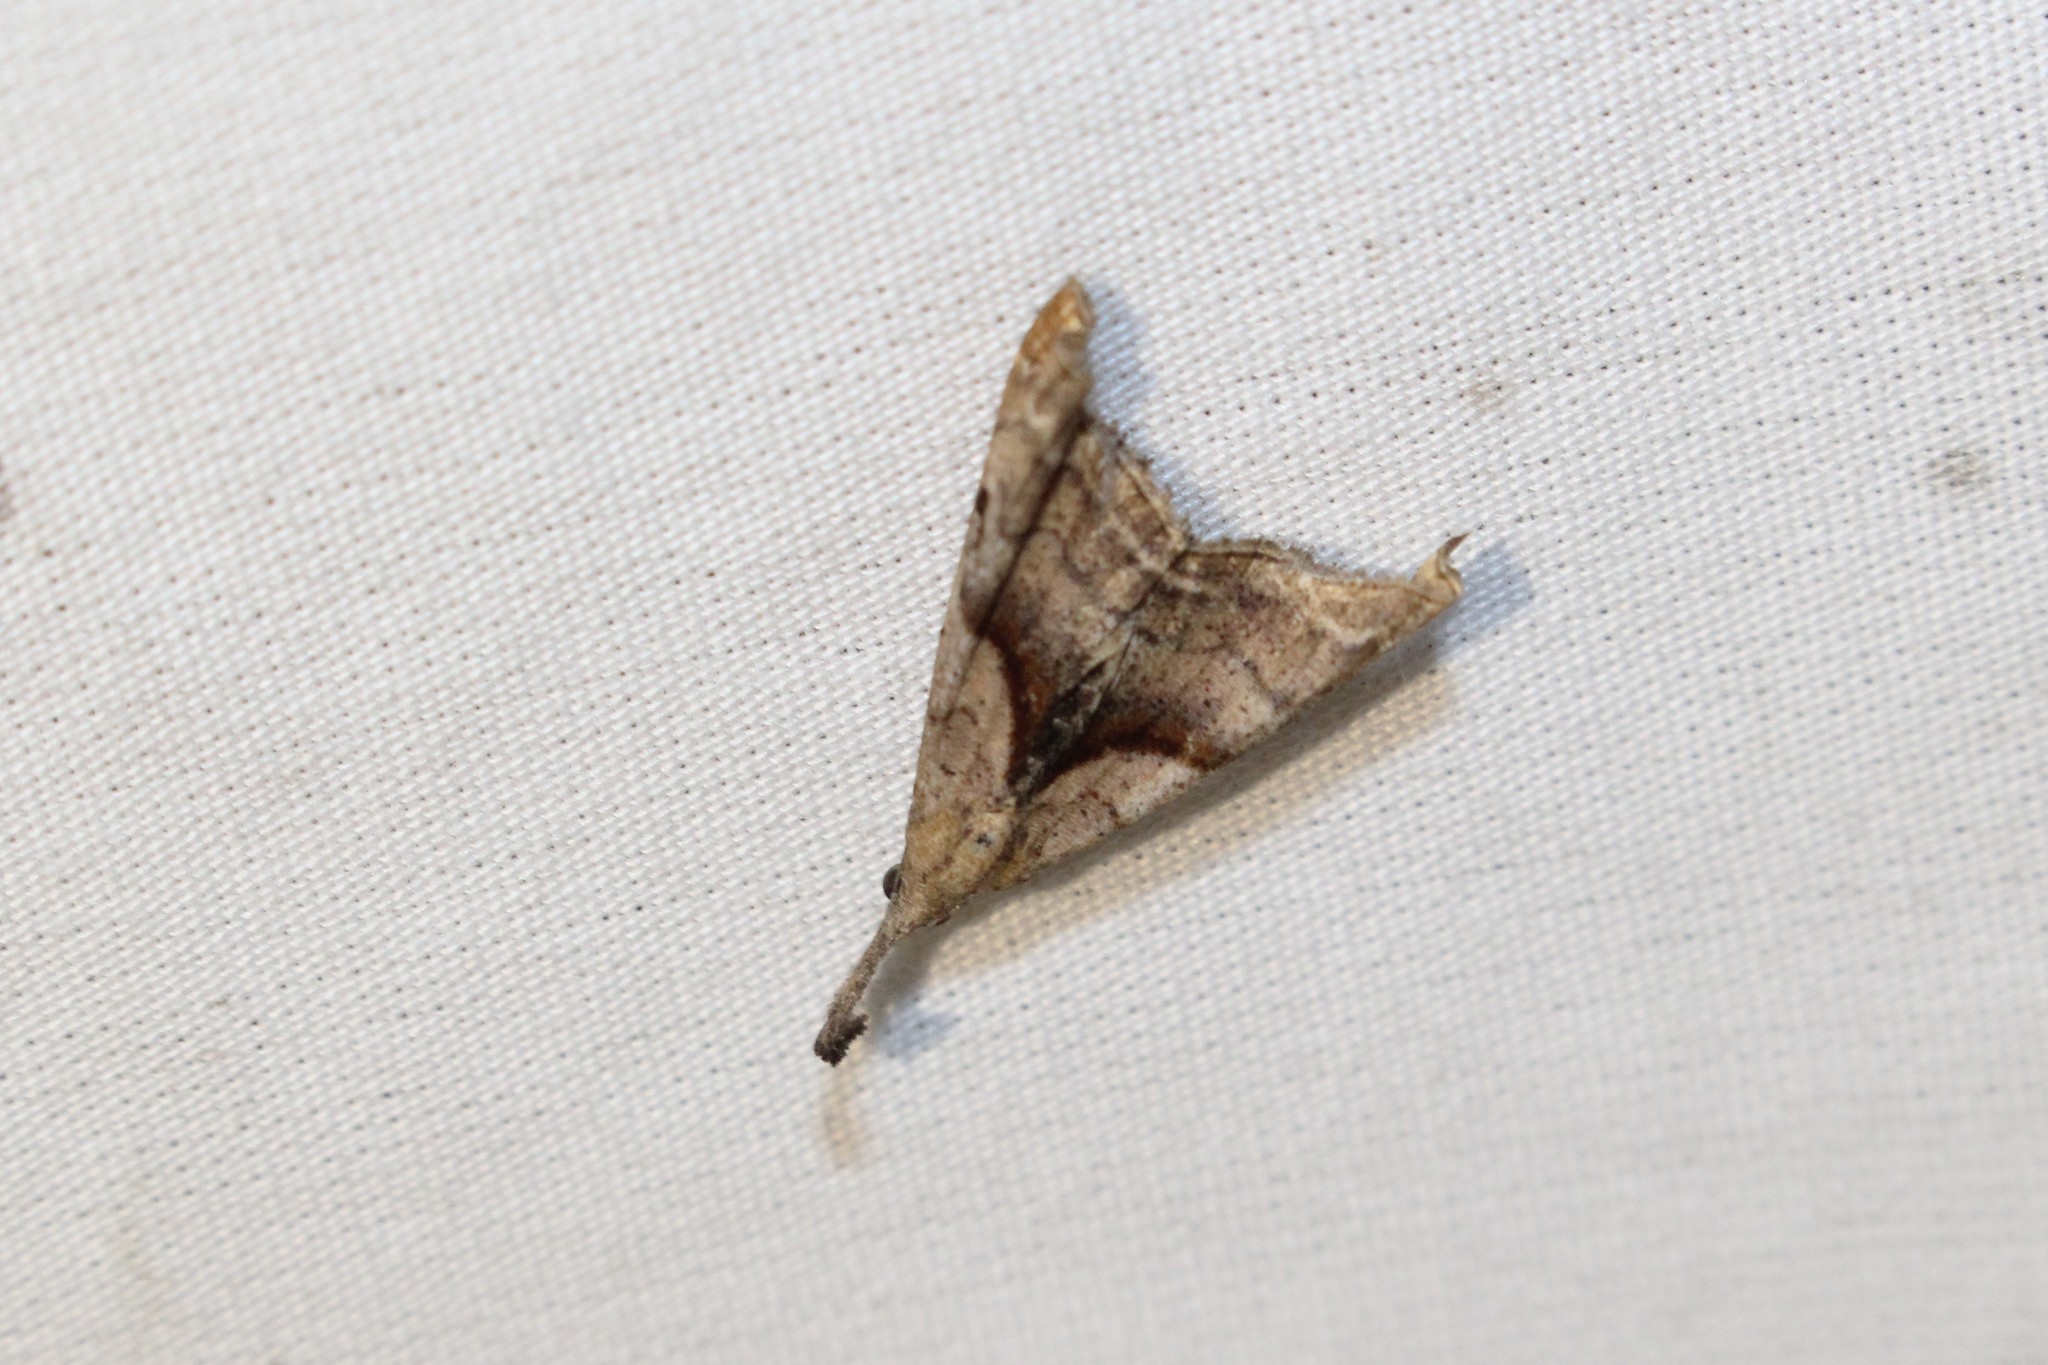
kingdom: Animalia
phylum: Arthropoda
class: Insecta
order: Lepidoptera
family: Erebidae
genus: Palthis
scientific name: Palthis angulalis
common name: Dark-spotted palthis moth
